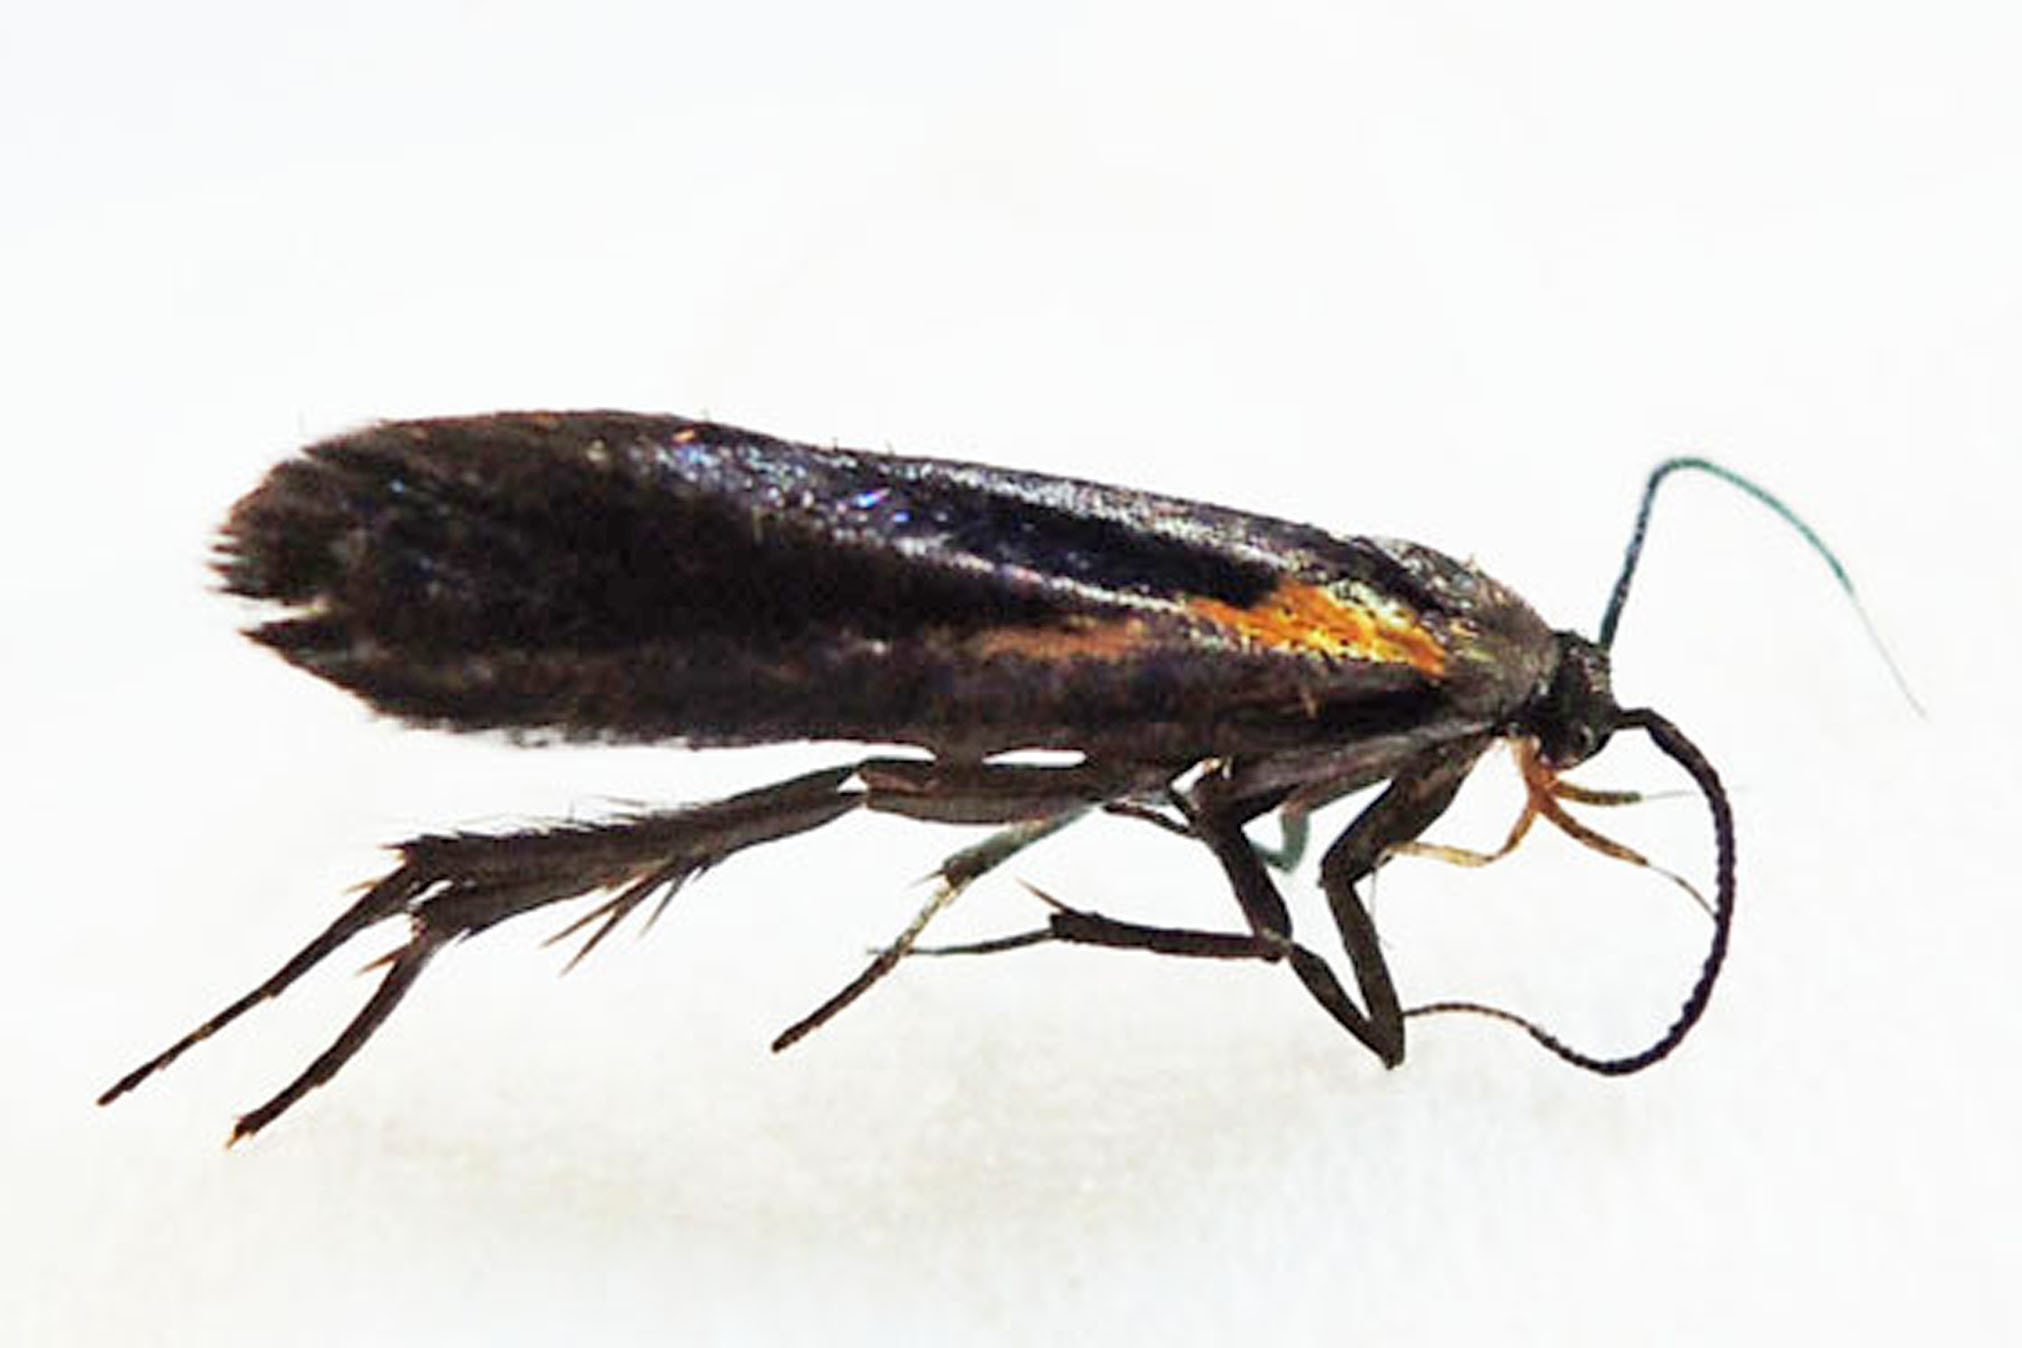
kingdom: Animalia
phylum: Arthropoda
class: Insecta
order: Lepidoptera
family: Oecophoridae
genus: Mathildana
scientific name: Mathildana newmanella
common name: Newman's mathildana moth
